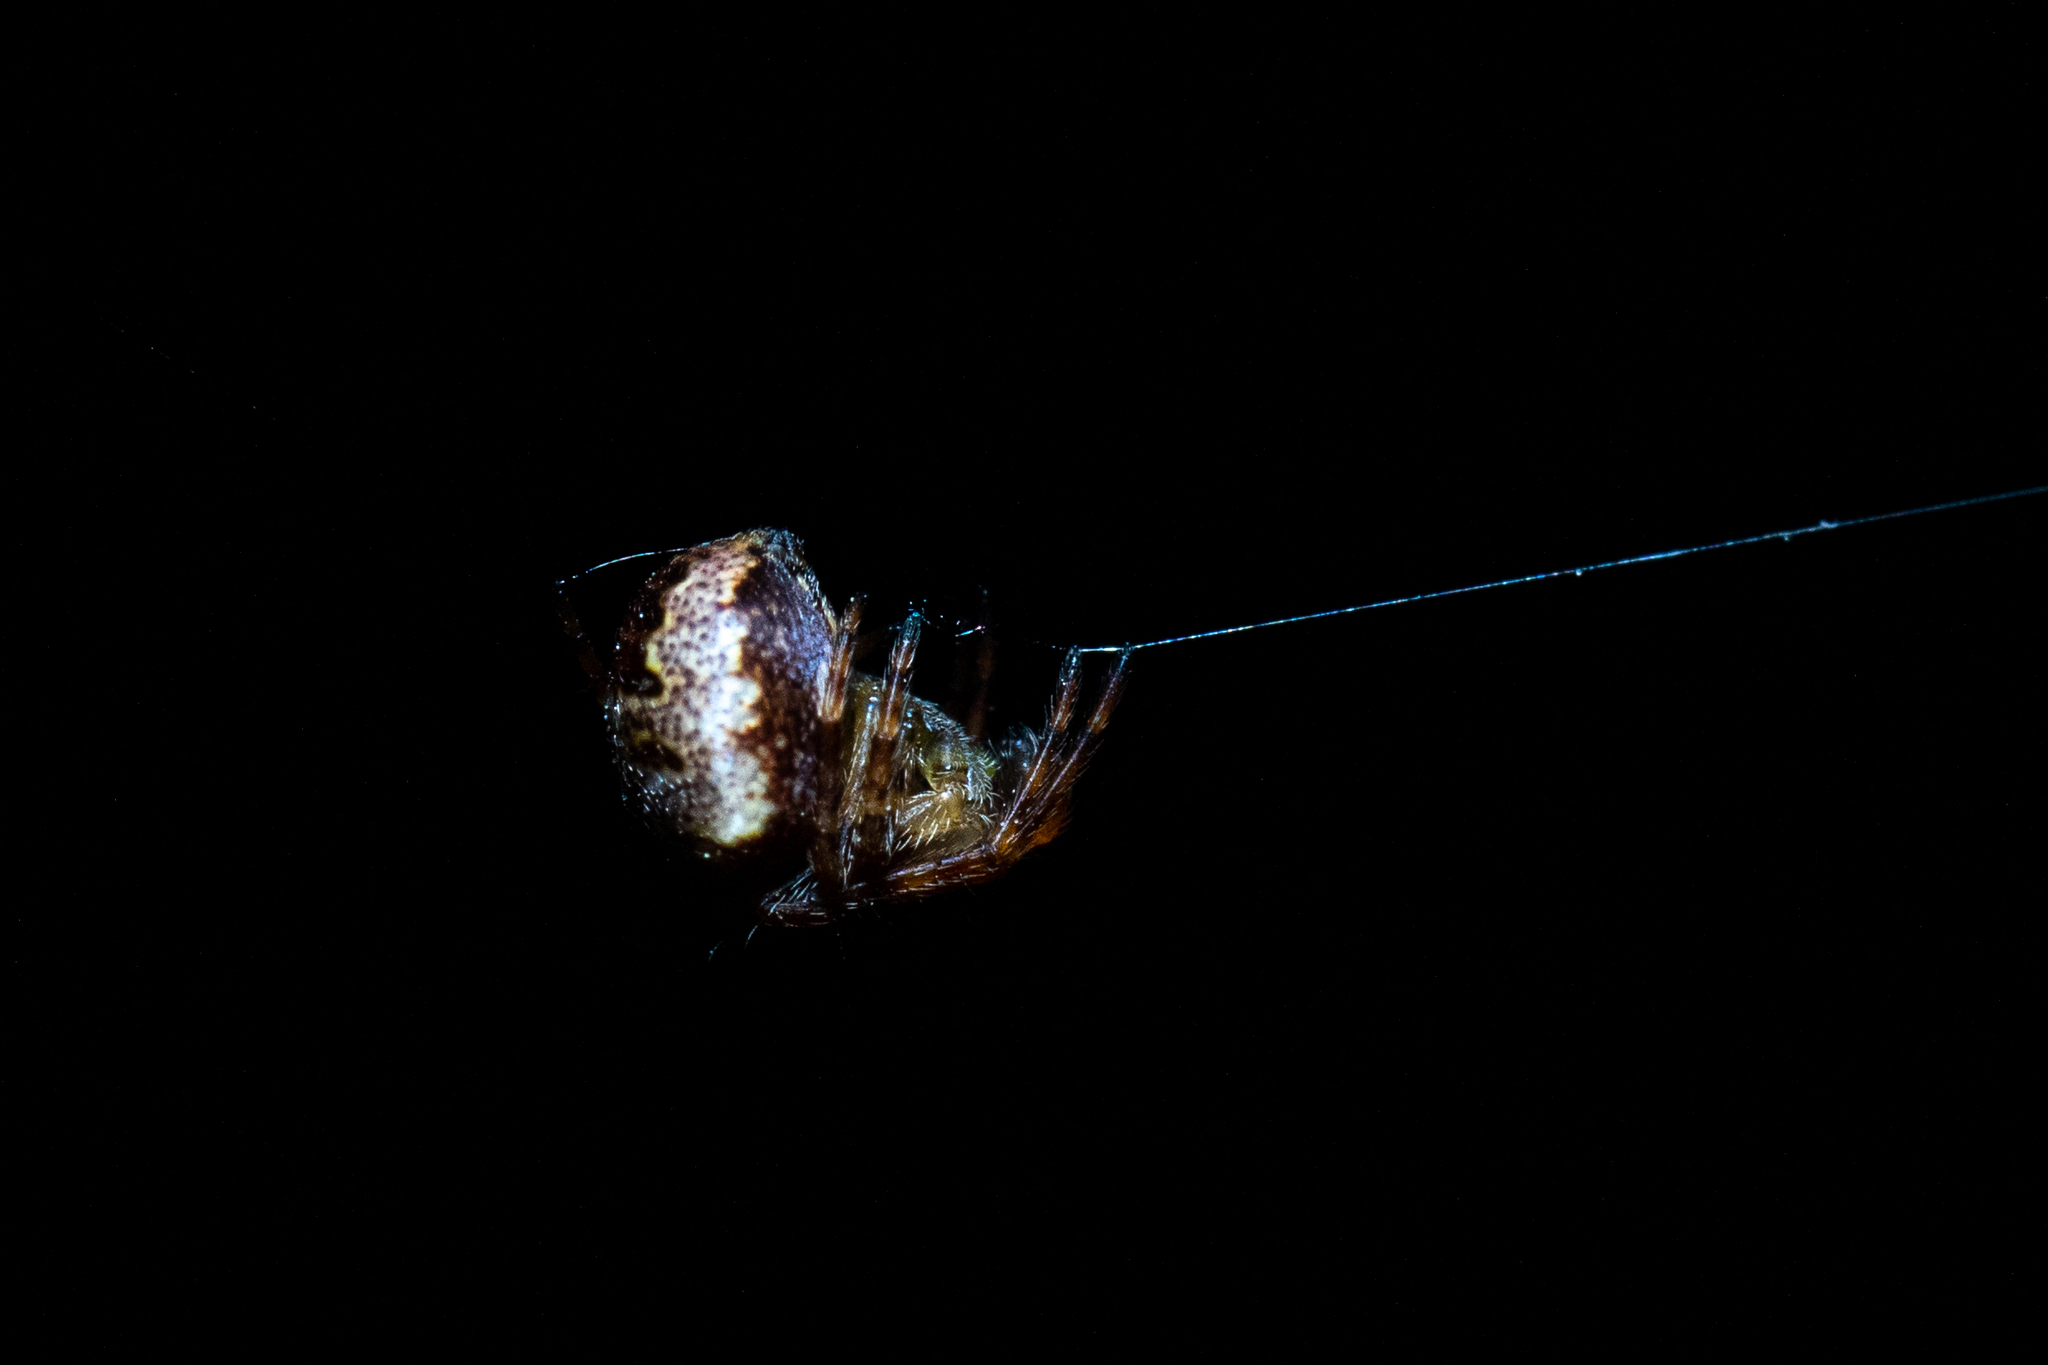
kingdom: Animalia
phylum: Arthropoda
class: Arachnida
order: Araneae
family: Araneidae
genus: Zilla
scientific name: Zilla diodia
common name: Zilla diodia
